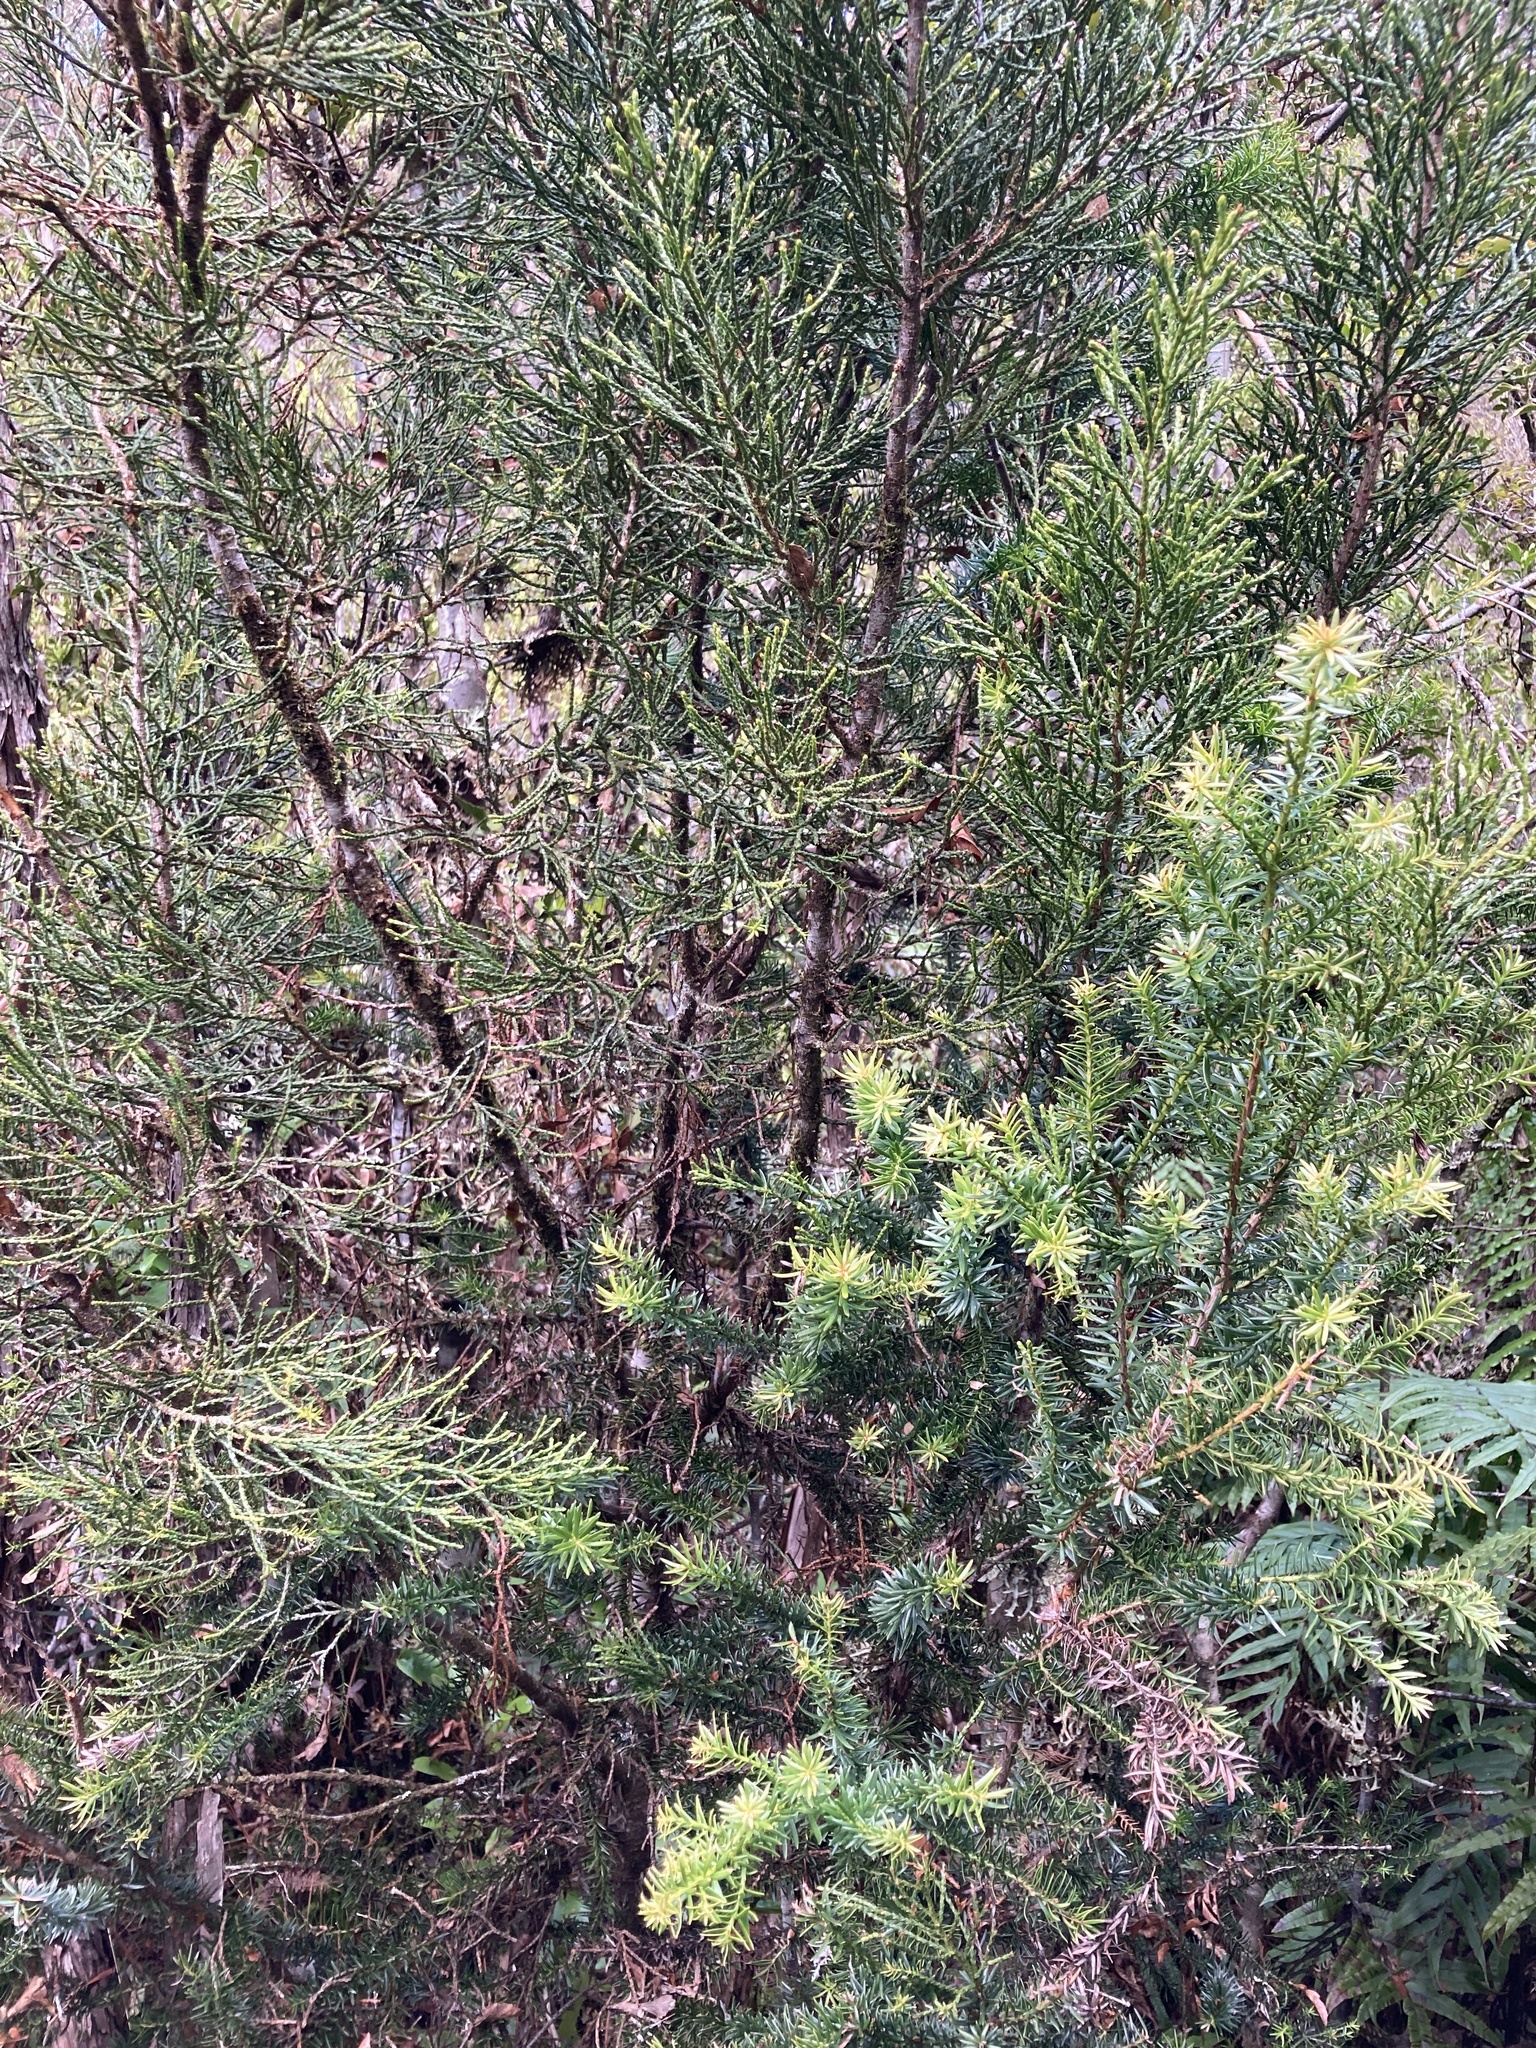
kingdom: Plantae
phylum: Tracheophyta
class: Pinopsida
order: Pinales
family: Podocarpaceae
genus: Halocarpus
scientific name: Halocarpus biformis
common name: Alpine tarwood
